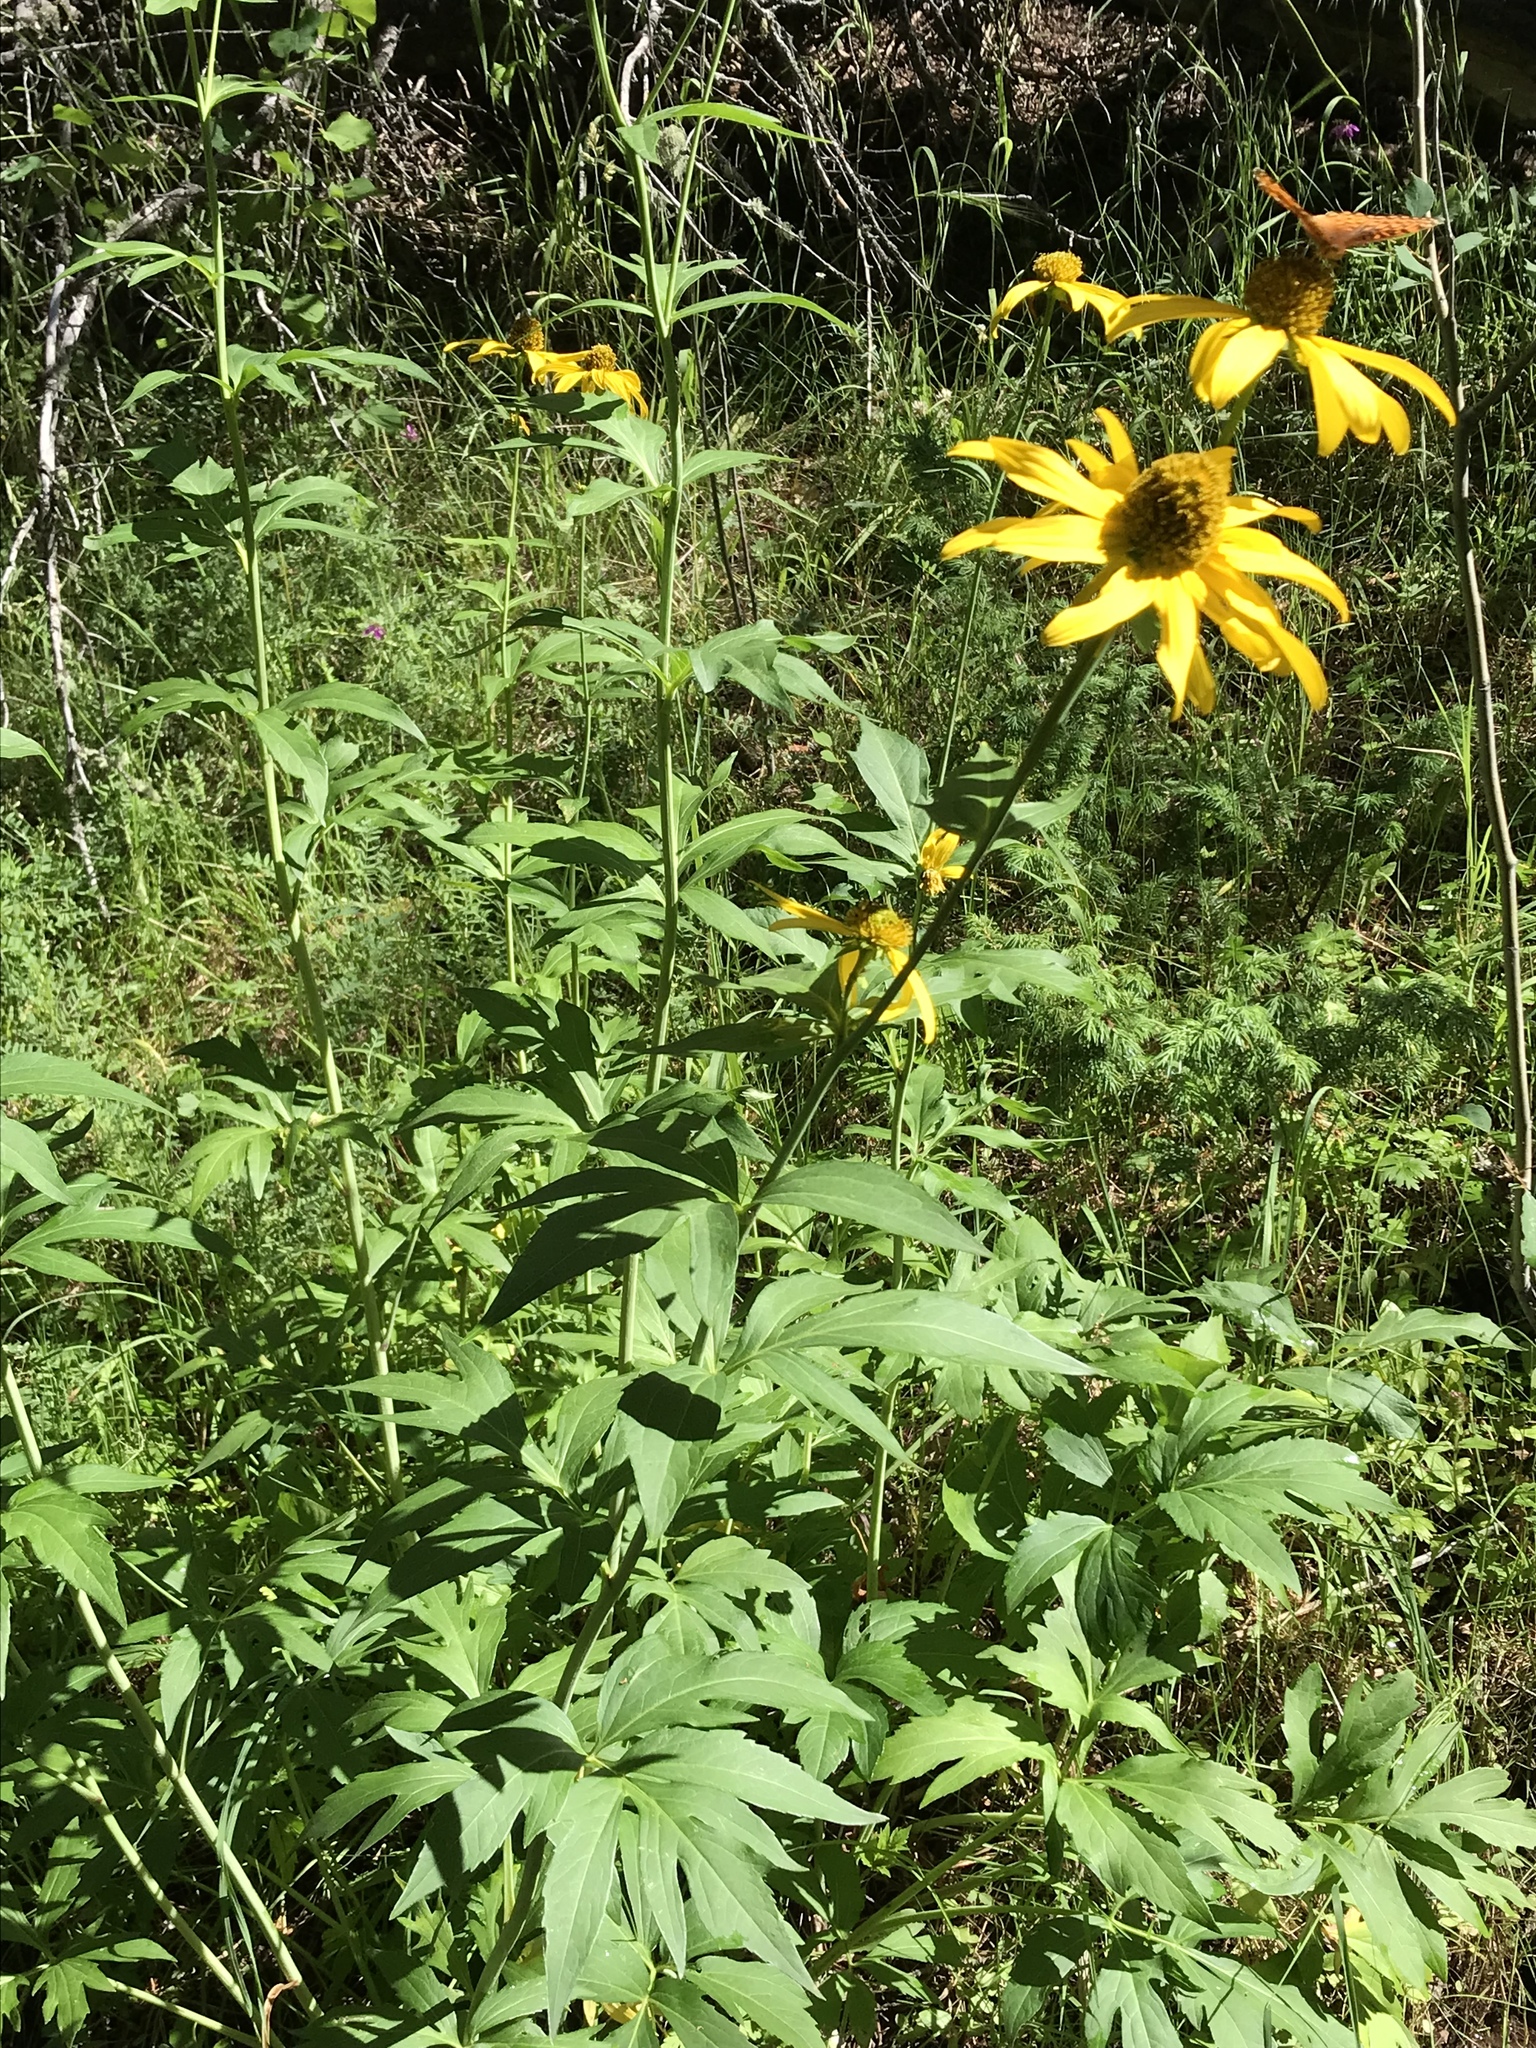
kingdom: Plantae
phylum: Tracheophyta
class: Magnoliopsida
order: Asterales
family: Asteraceae
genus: Rudbeckia
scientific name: Rudbeckia laciniata
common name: Coneflower
